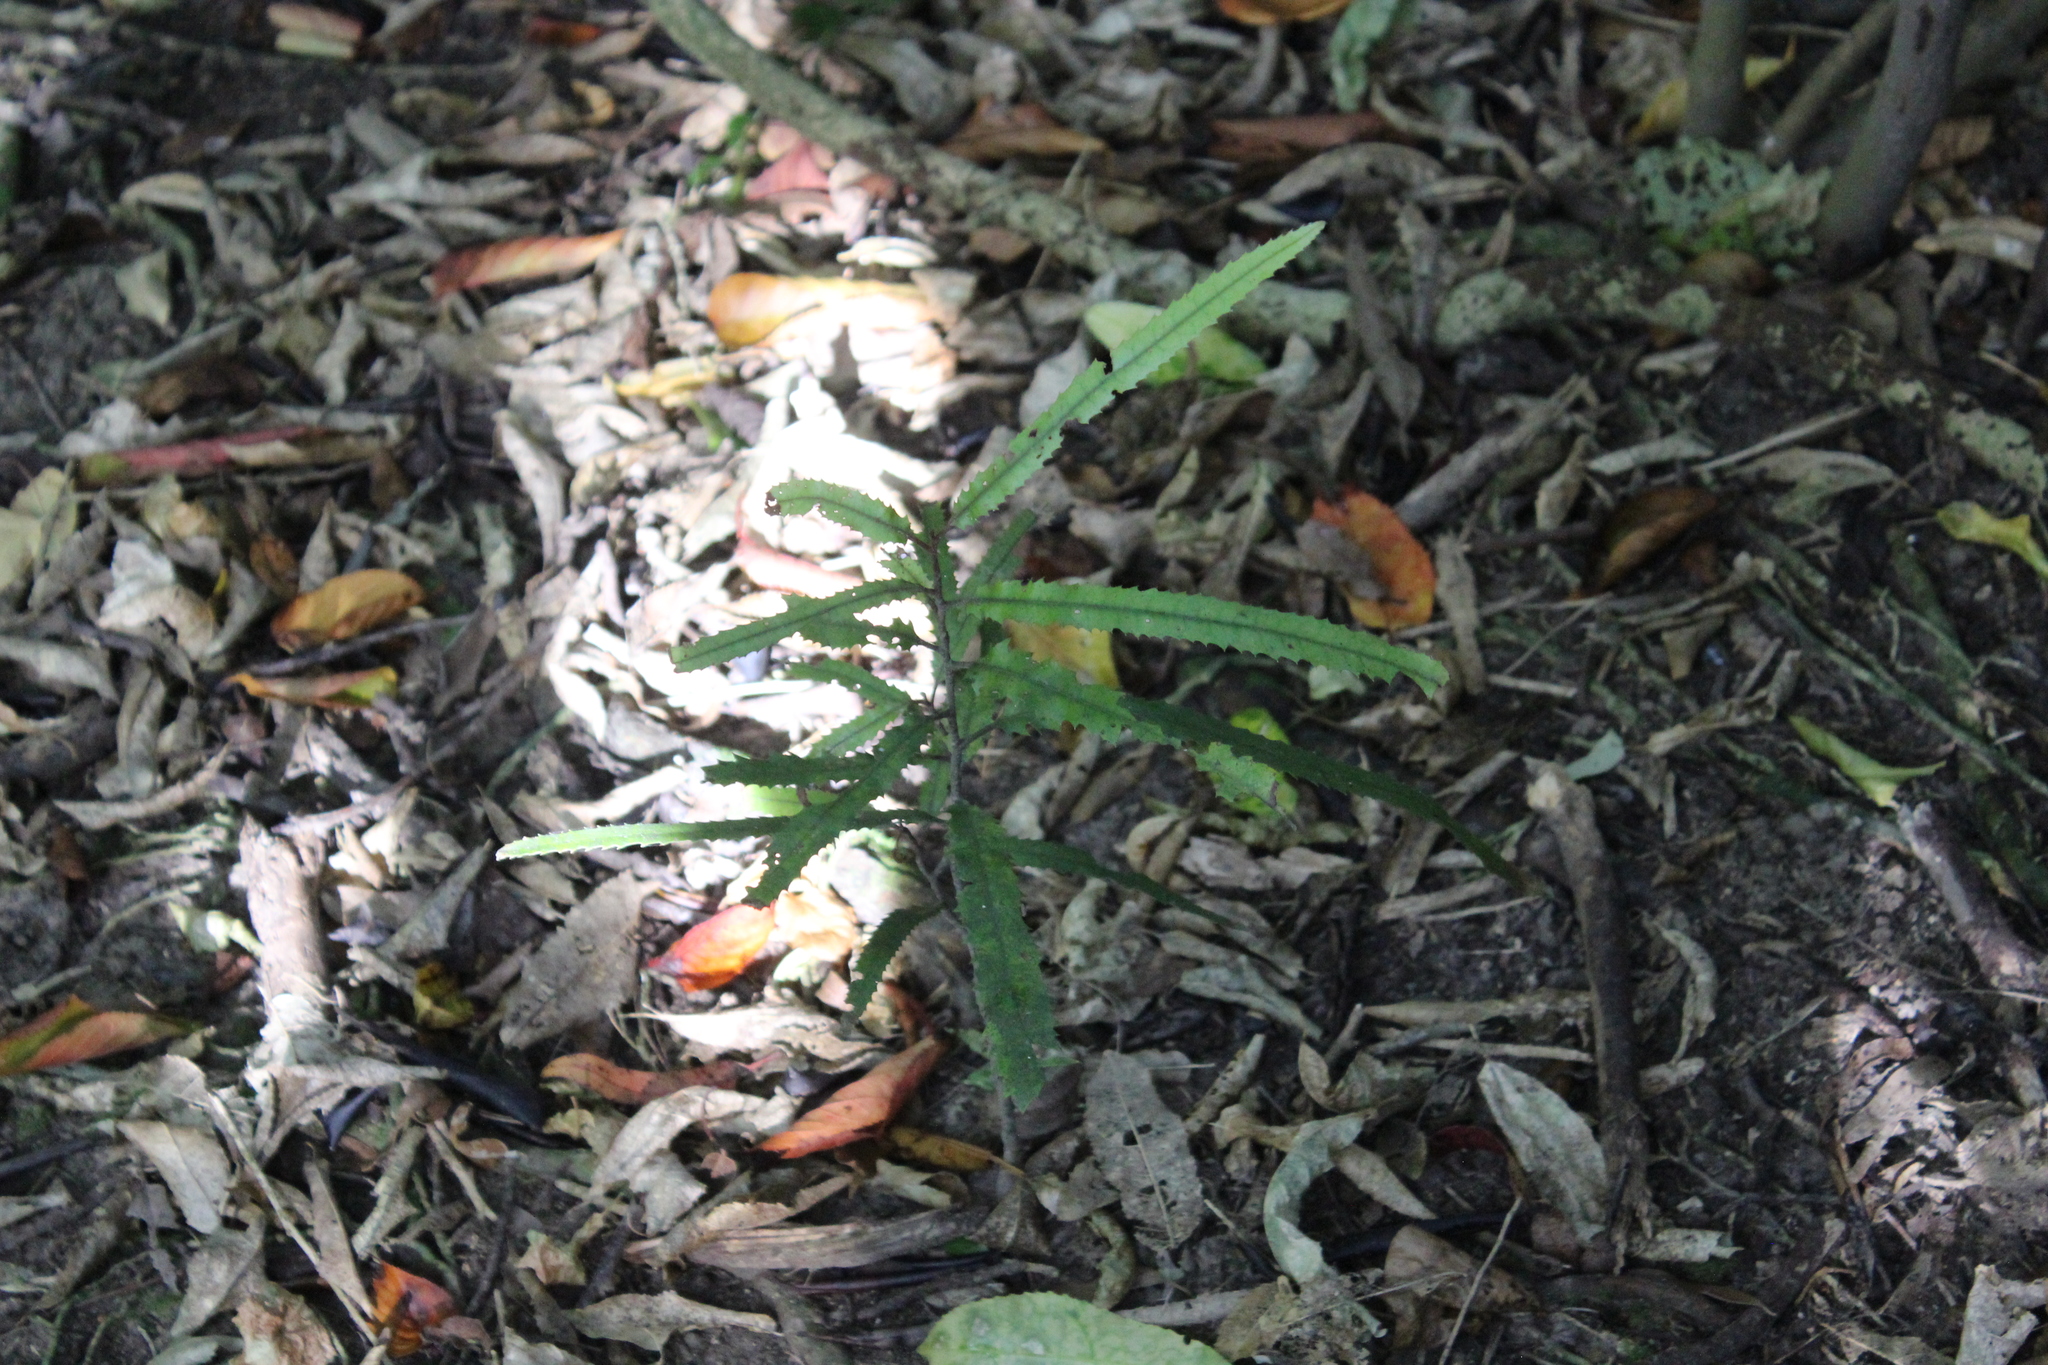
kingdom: Plantae
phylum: Tracheophyta
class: Magnoliopsida
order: Proteales
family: Proteaceae
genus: Knightia
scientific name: Knightia excelsa
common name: New zealand-honeysuckle
